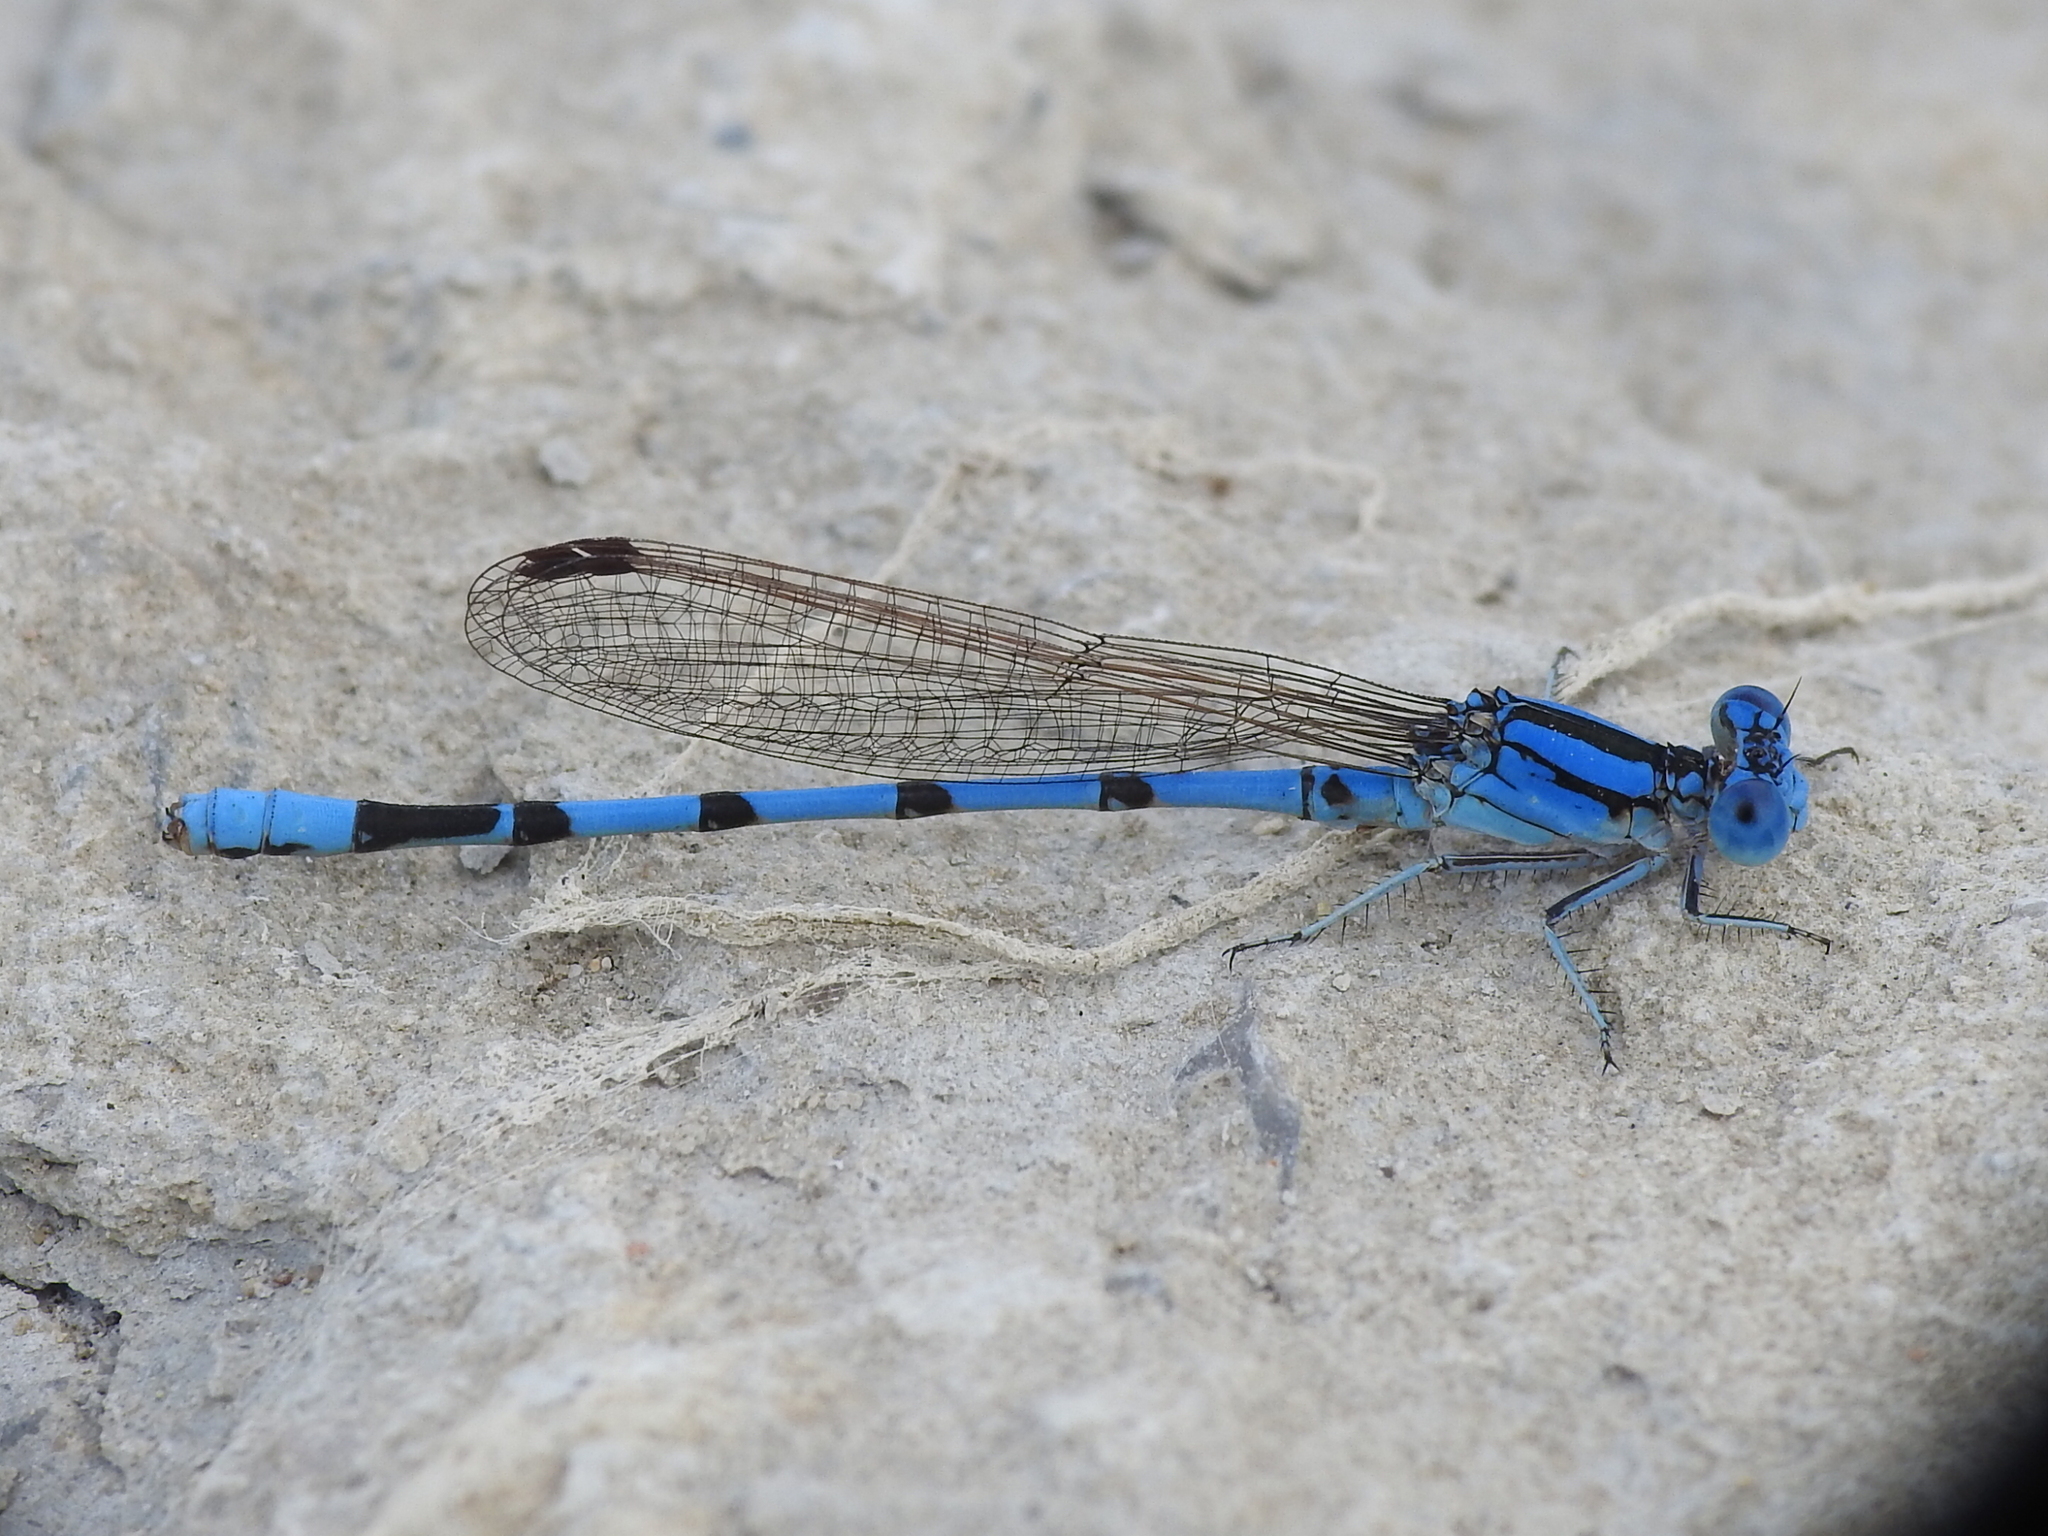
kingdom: Animalia
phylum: Arthropoda
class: Insecta
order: Odonata
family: Coenagrionidae
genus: Argia
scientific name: Argia nahuana
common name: Aztec dancer
